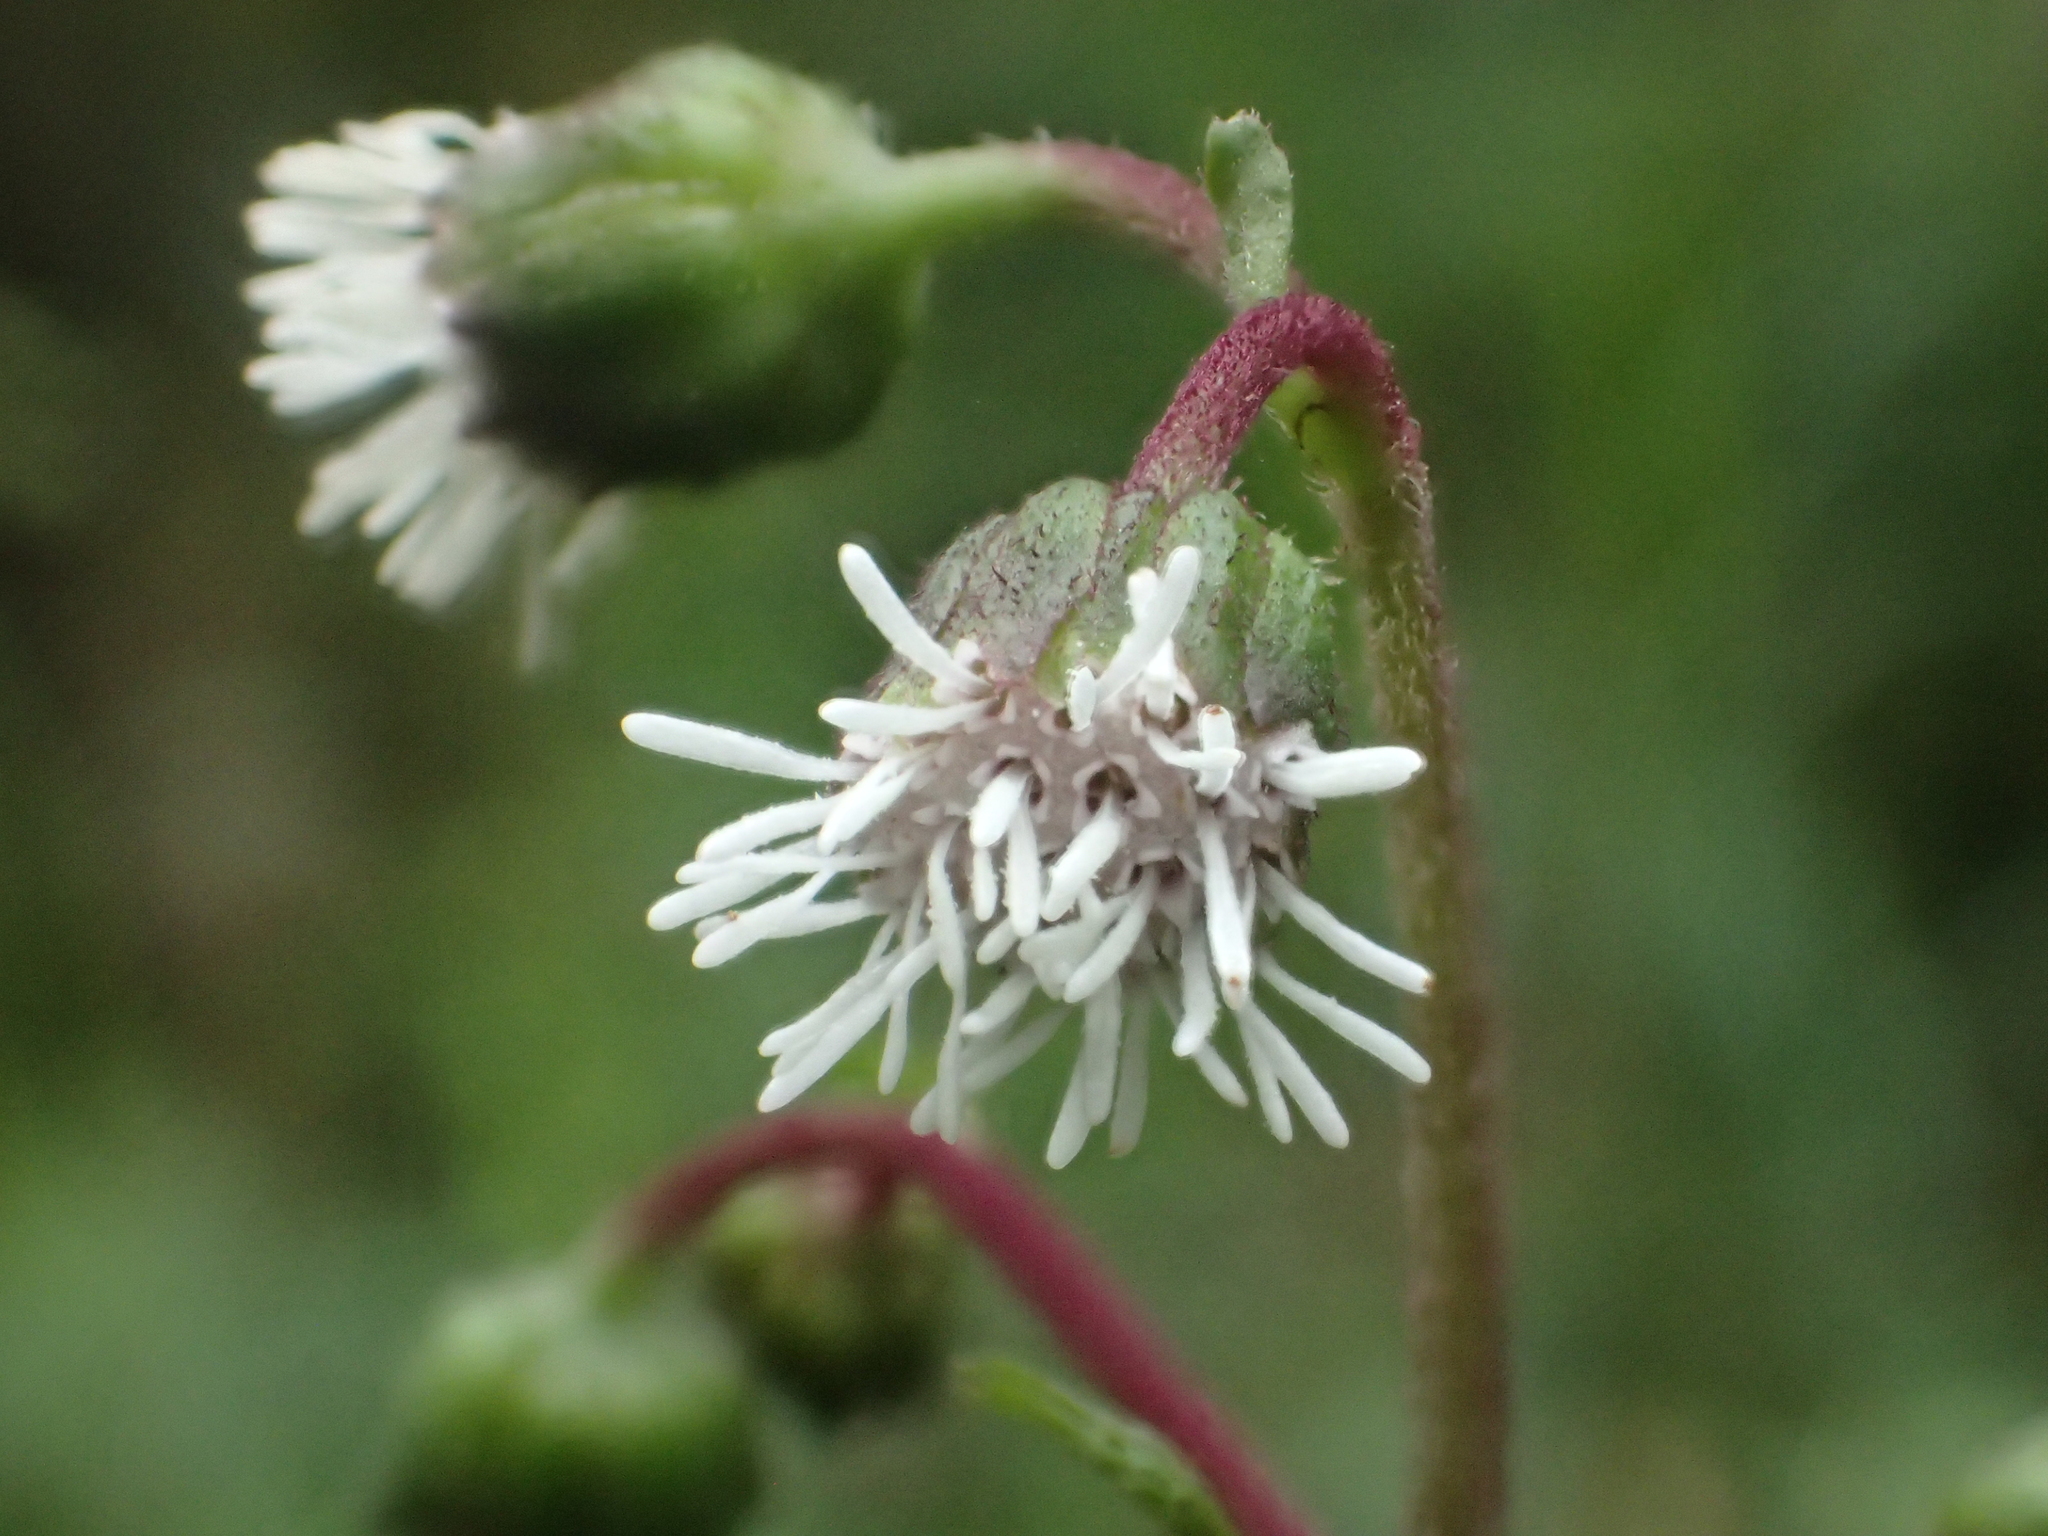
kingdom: Plantae
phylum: Tracheophyta
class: Magnoliopsida
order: Asterales
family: Asteraceae
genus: Adenostemma
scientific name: Adenostemma lavenia
